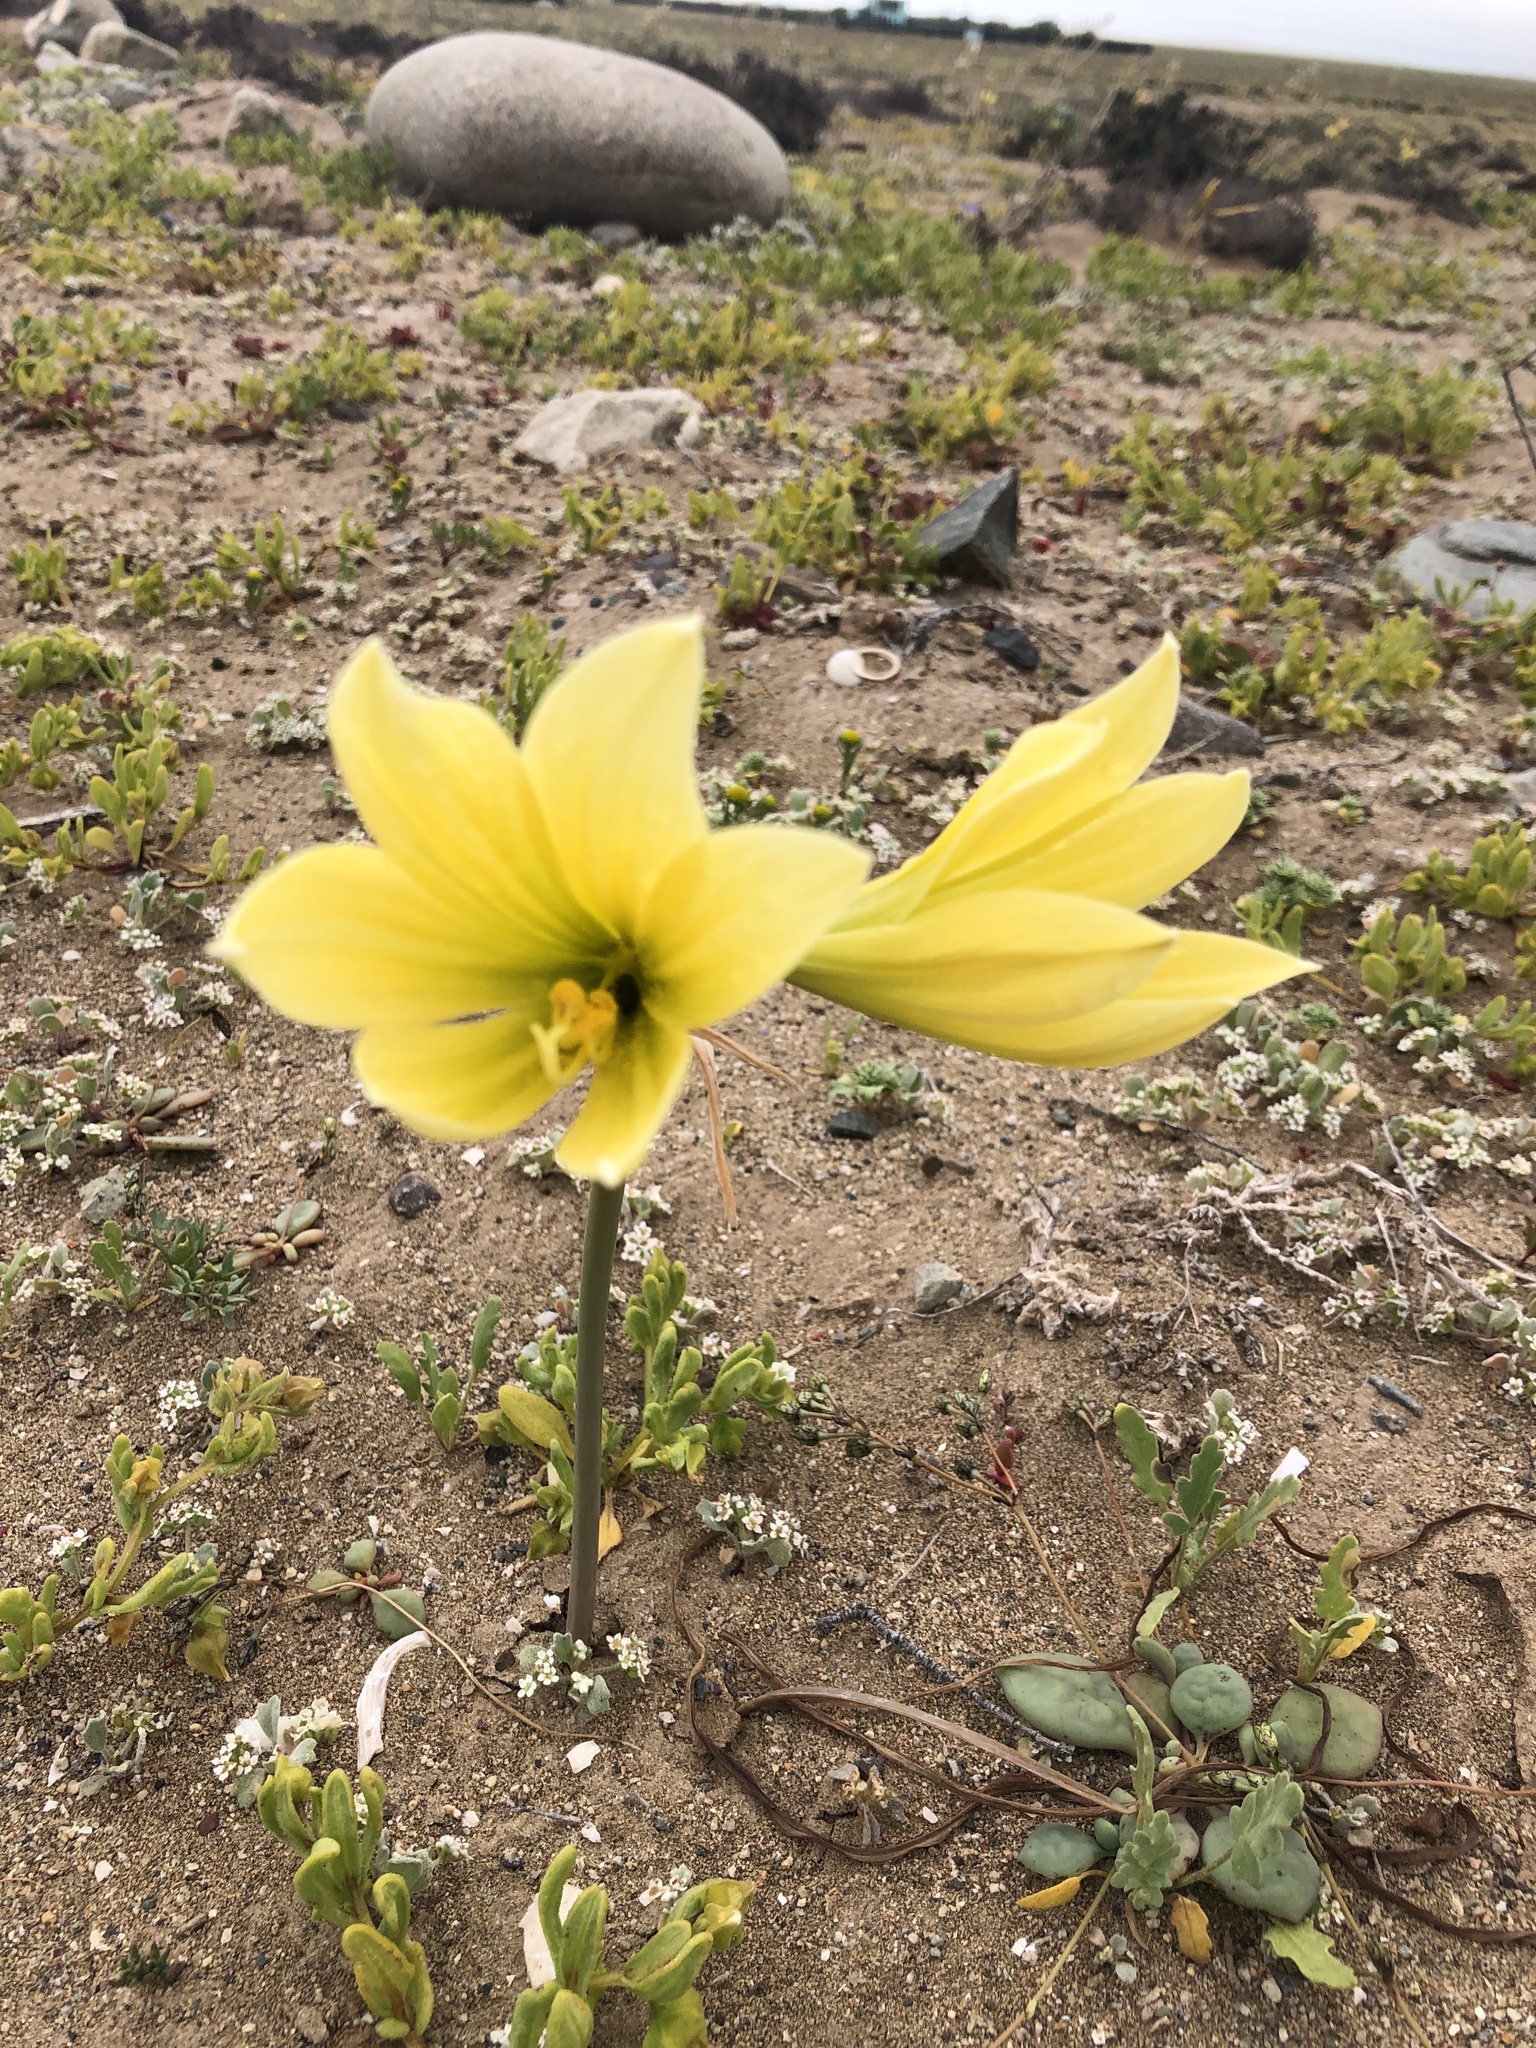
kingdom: Plantae
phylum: Tracheophyta
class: Liliopsida
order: Asparagales
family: Amaryllidaceae
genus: Zephyranthes
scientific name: Zephyranthes bagnoldii
